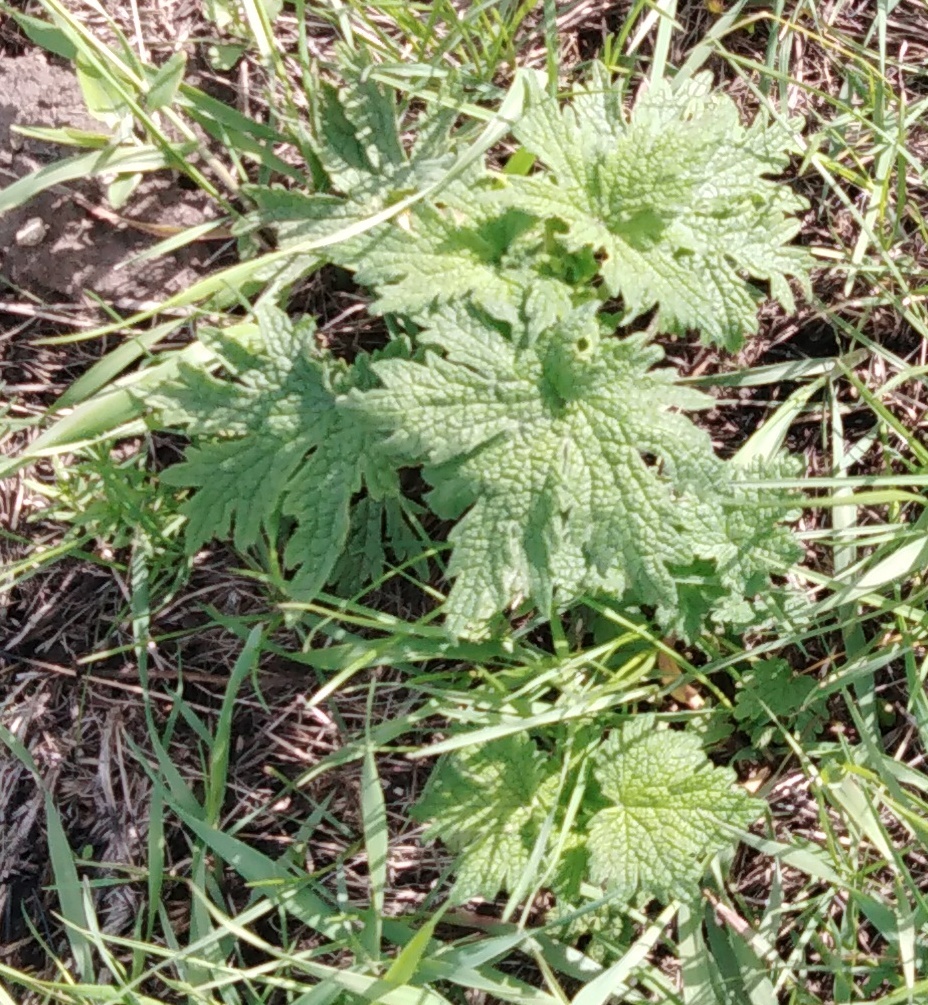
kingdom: Plantae
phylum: Tracheophyta
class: Magnoliopsida
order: Lamiales
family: Lamiaceae
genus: Leonurus
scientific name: Leonurus quinquelobatus
